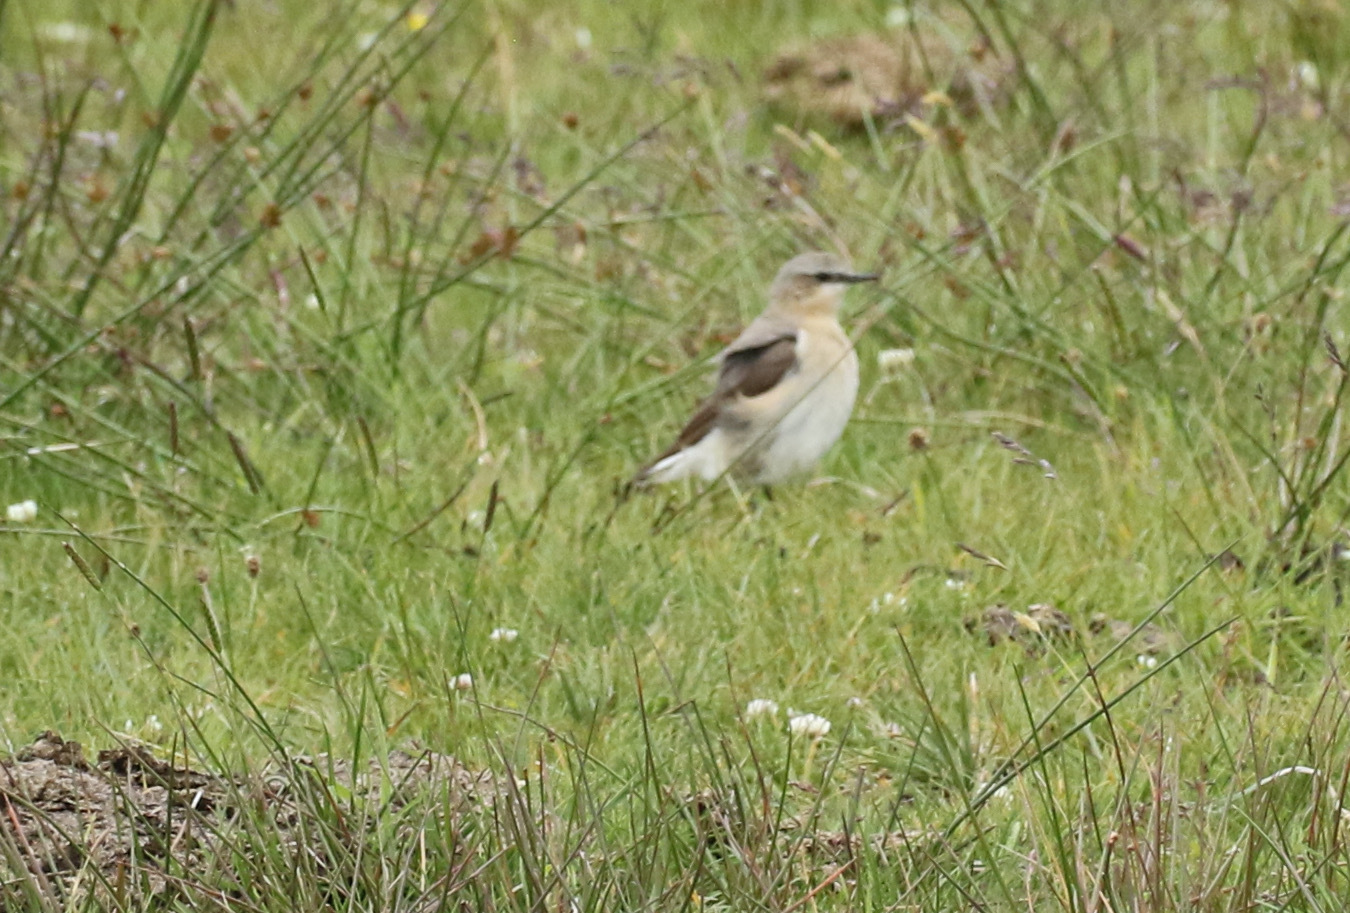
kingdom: Animalia
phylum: Chordata
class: Aves
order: Passeriformes
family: Muscicapidae
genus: Oenanthe
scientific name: Oenanthe oenanthe
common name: Northern wheatear
